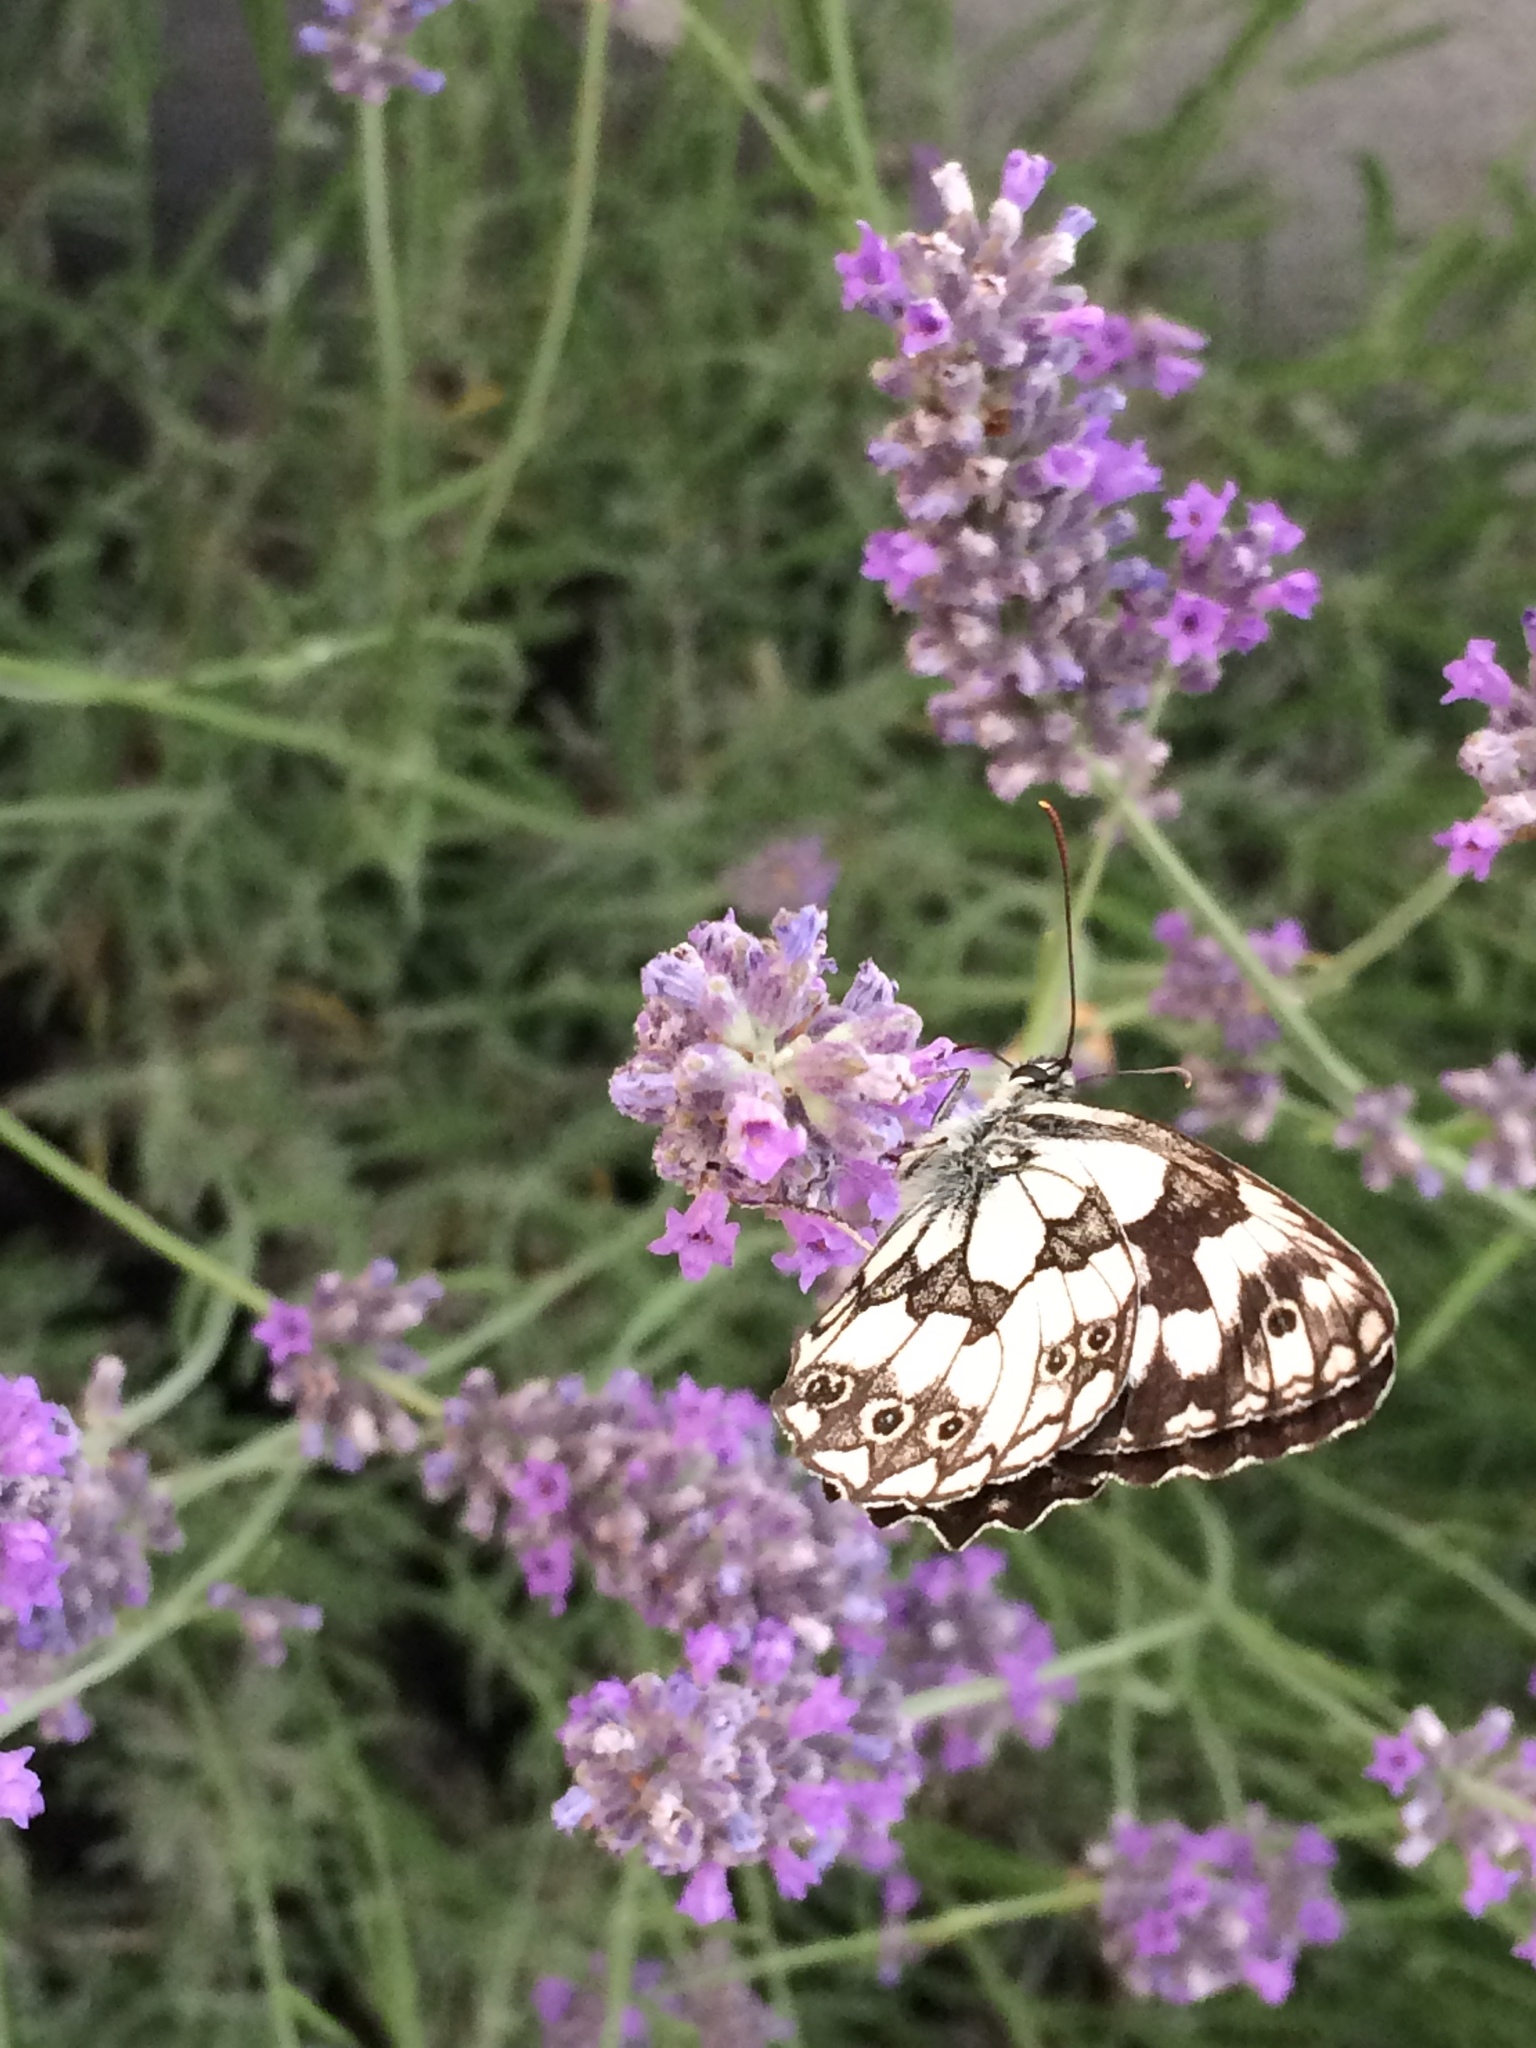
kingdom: Animalia
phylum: Arthropoda
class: Insecta
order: Lepidoptera
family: Nymphalidae
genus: Melanargia
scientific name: Melanargia galathea
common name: Marbled white
